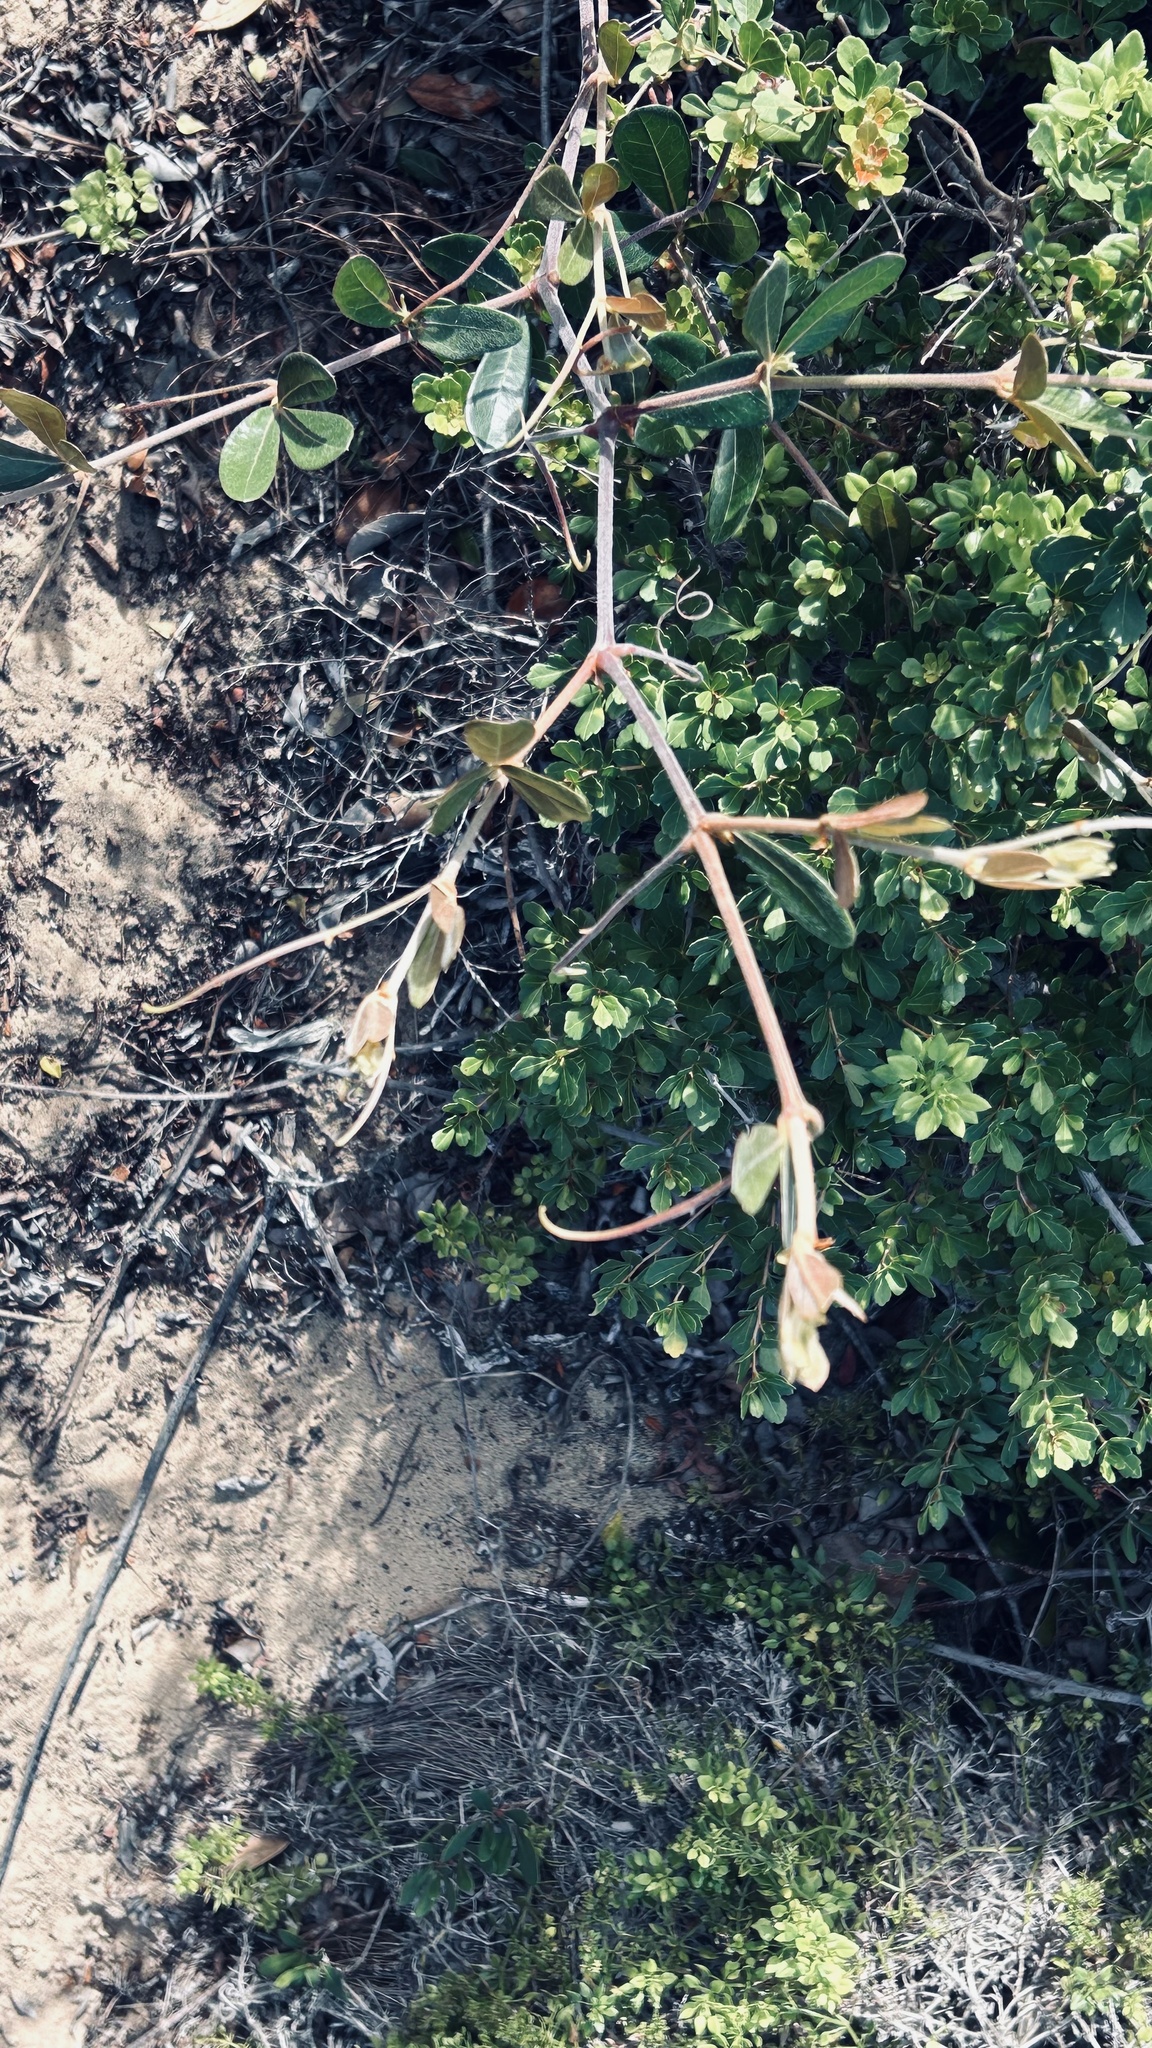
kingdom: Plantae
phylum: Tracheophyta
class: Magnoliopsida
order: Vitales
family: Vitaceae
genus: Rhoicissus
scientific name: Rhoicissus digitata
